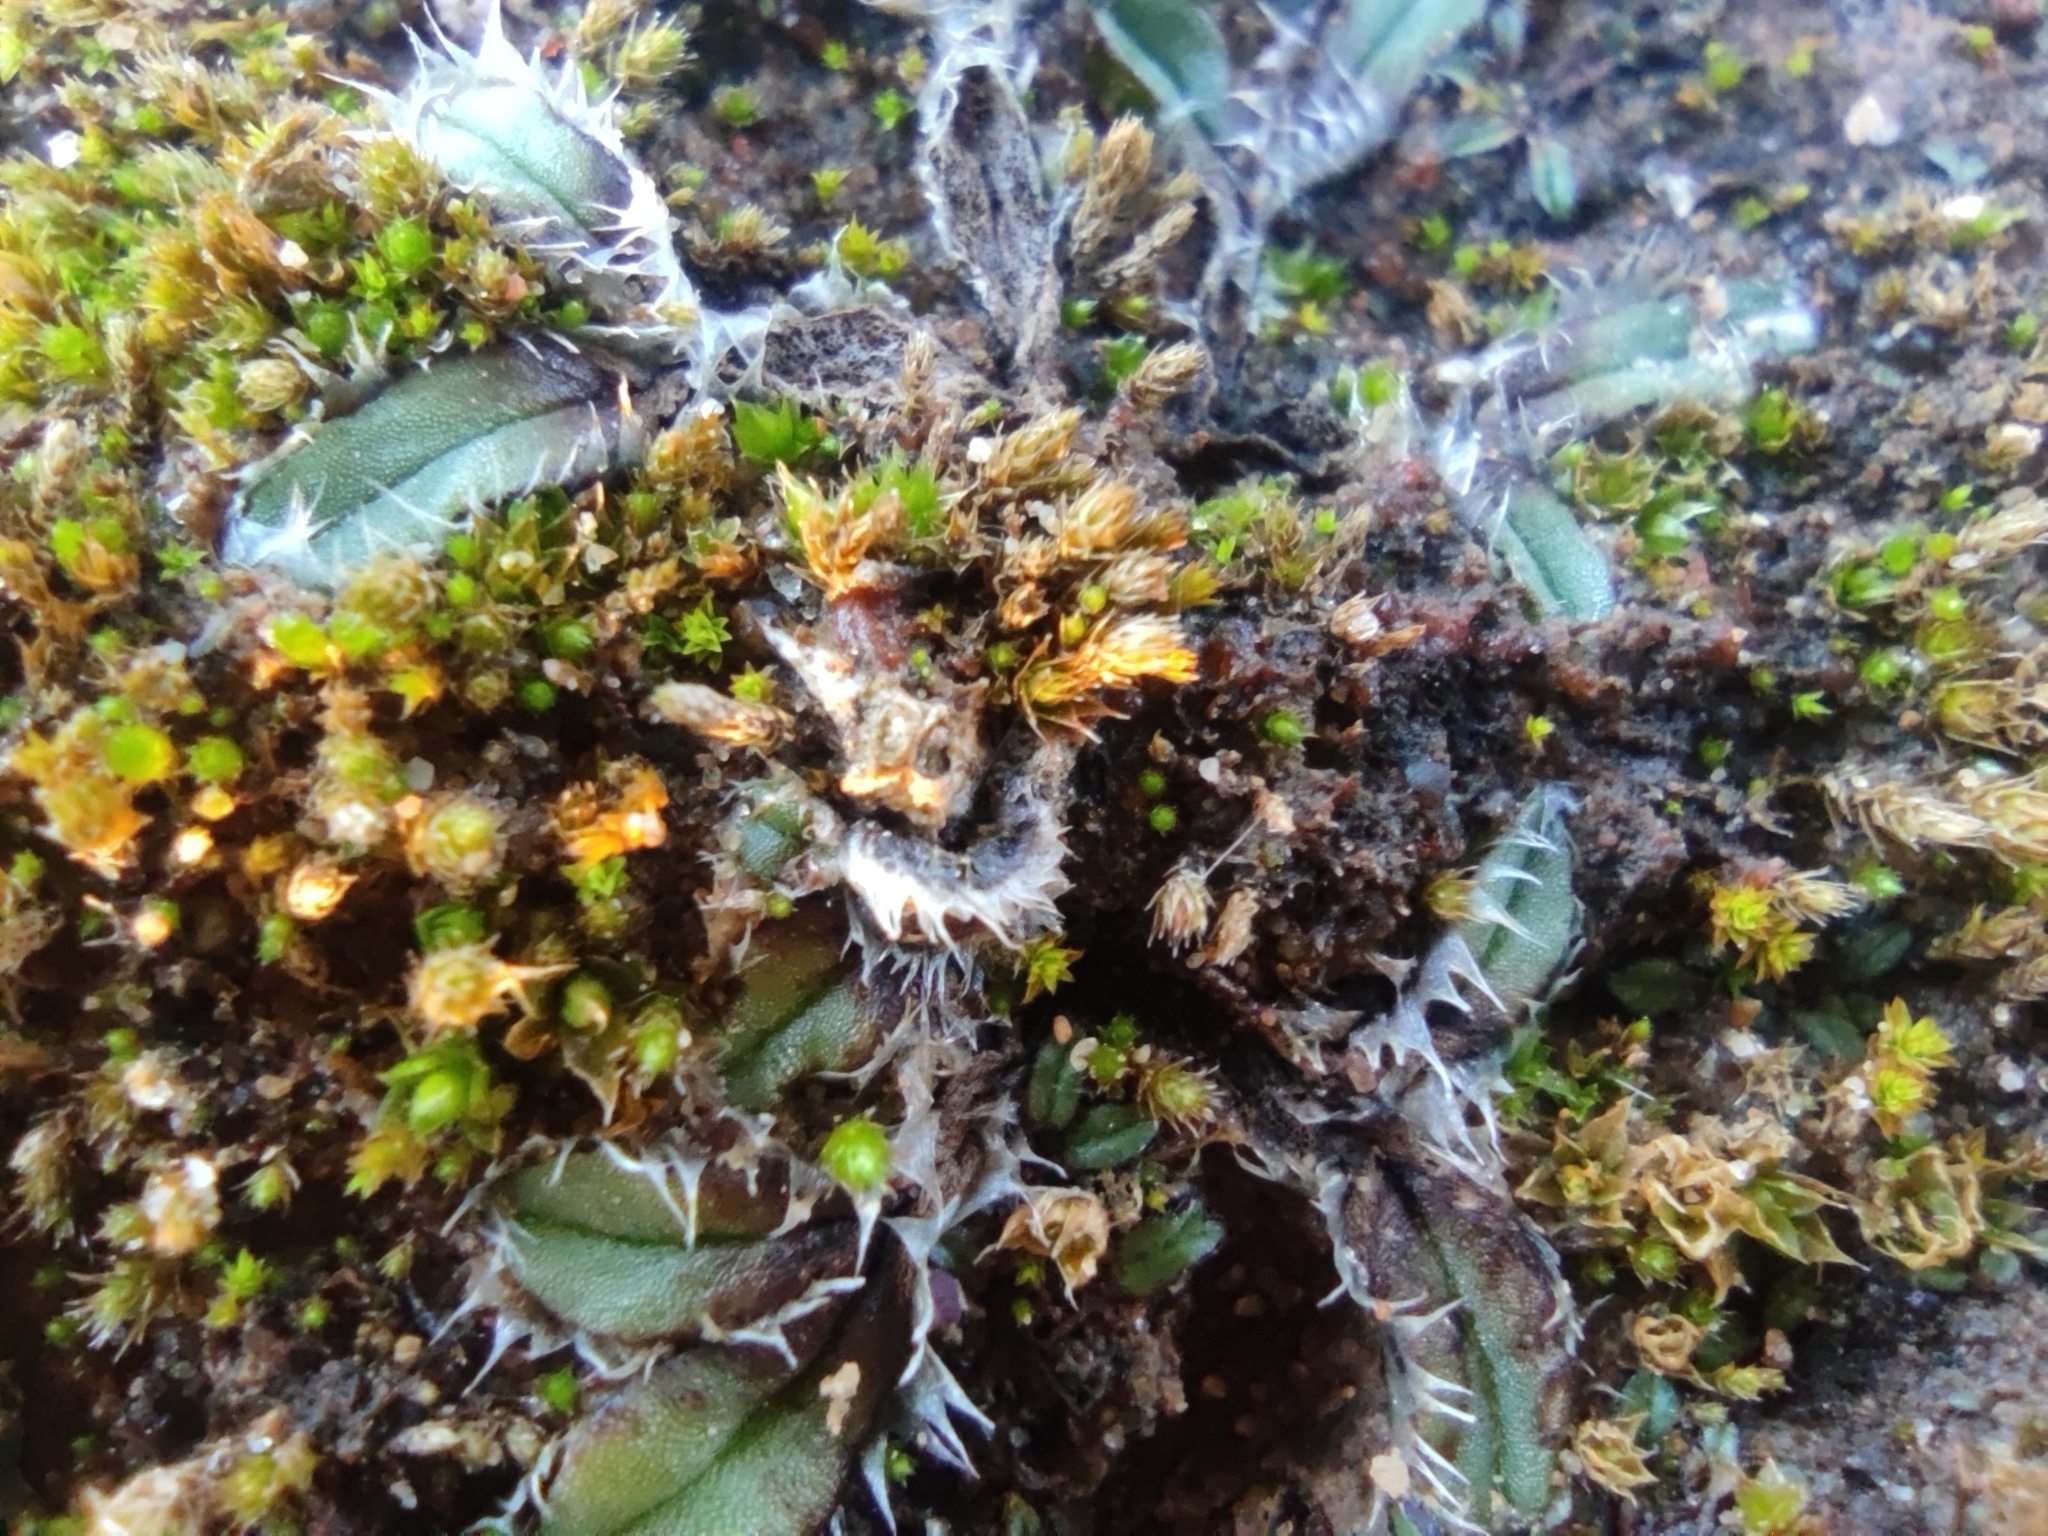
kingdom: Plantae
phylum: Marchantiophyta
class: Marchantiopsida
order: Marchantiales
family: Ricciaceae
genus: Oxymitra
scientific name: Oxymitra incrassata
